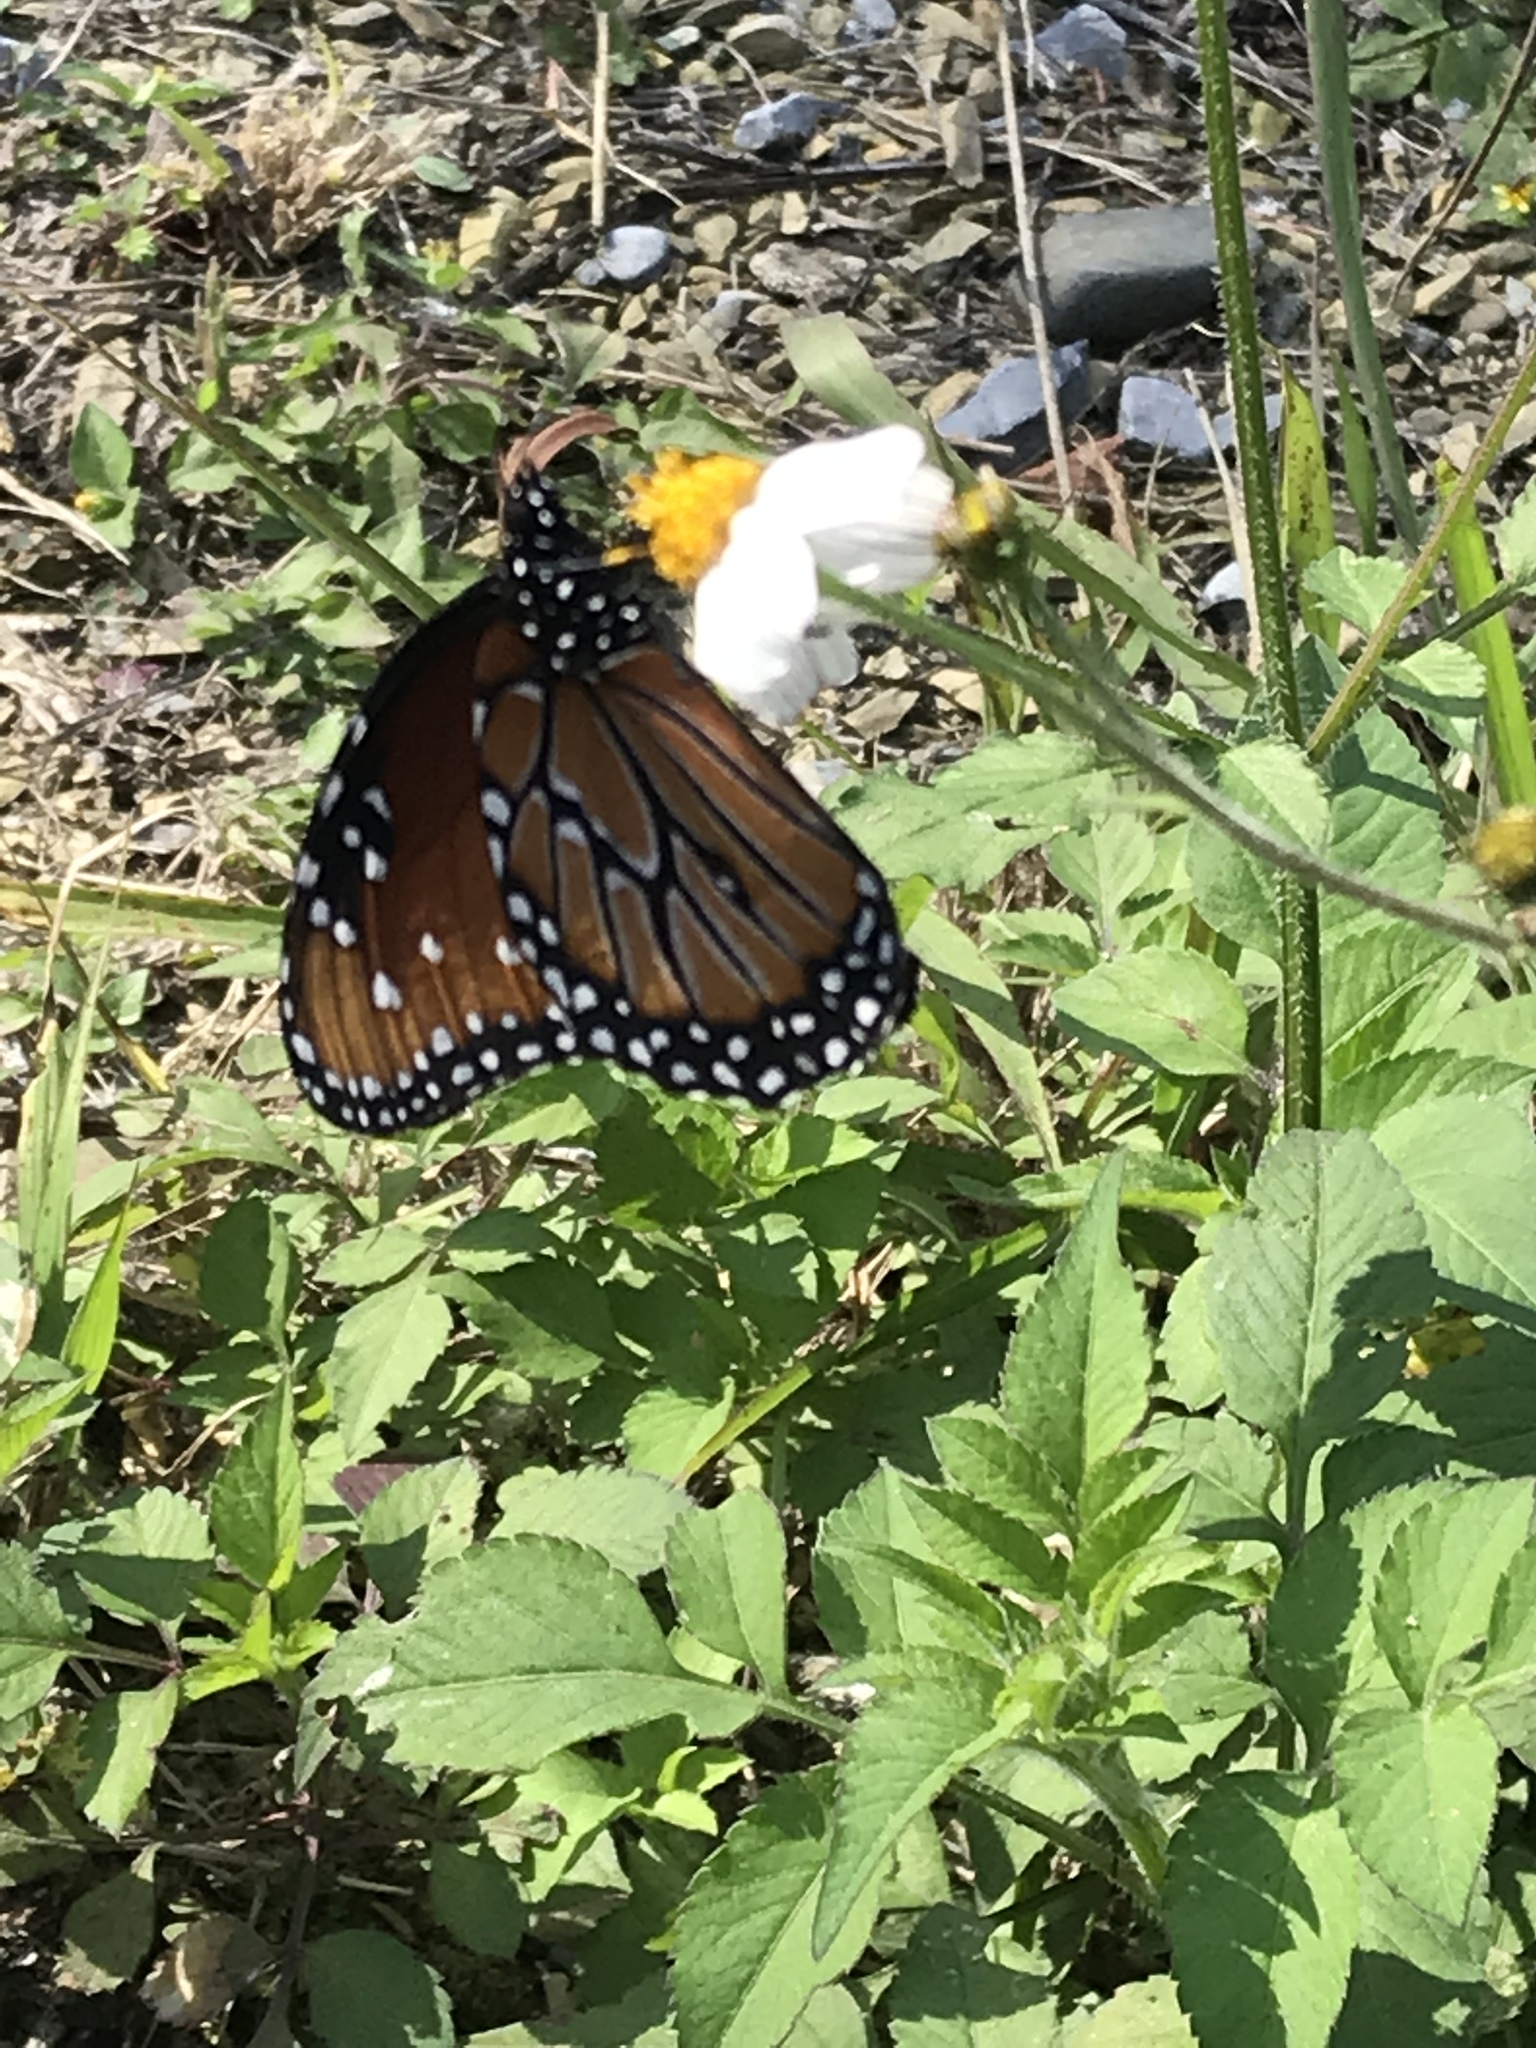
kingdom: Animalia
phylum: Arthropoda
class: Insecta
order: Lepidoptera
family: Nymphalidae
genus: Danaus
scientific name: Danaus gilippus
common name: Queen
